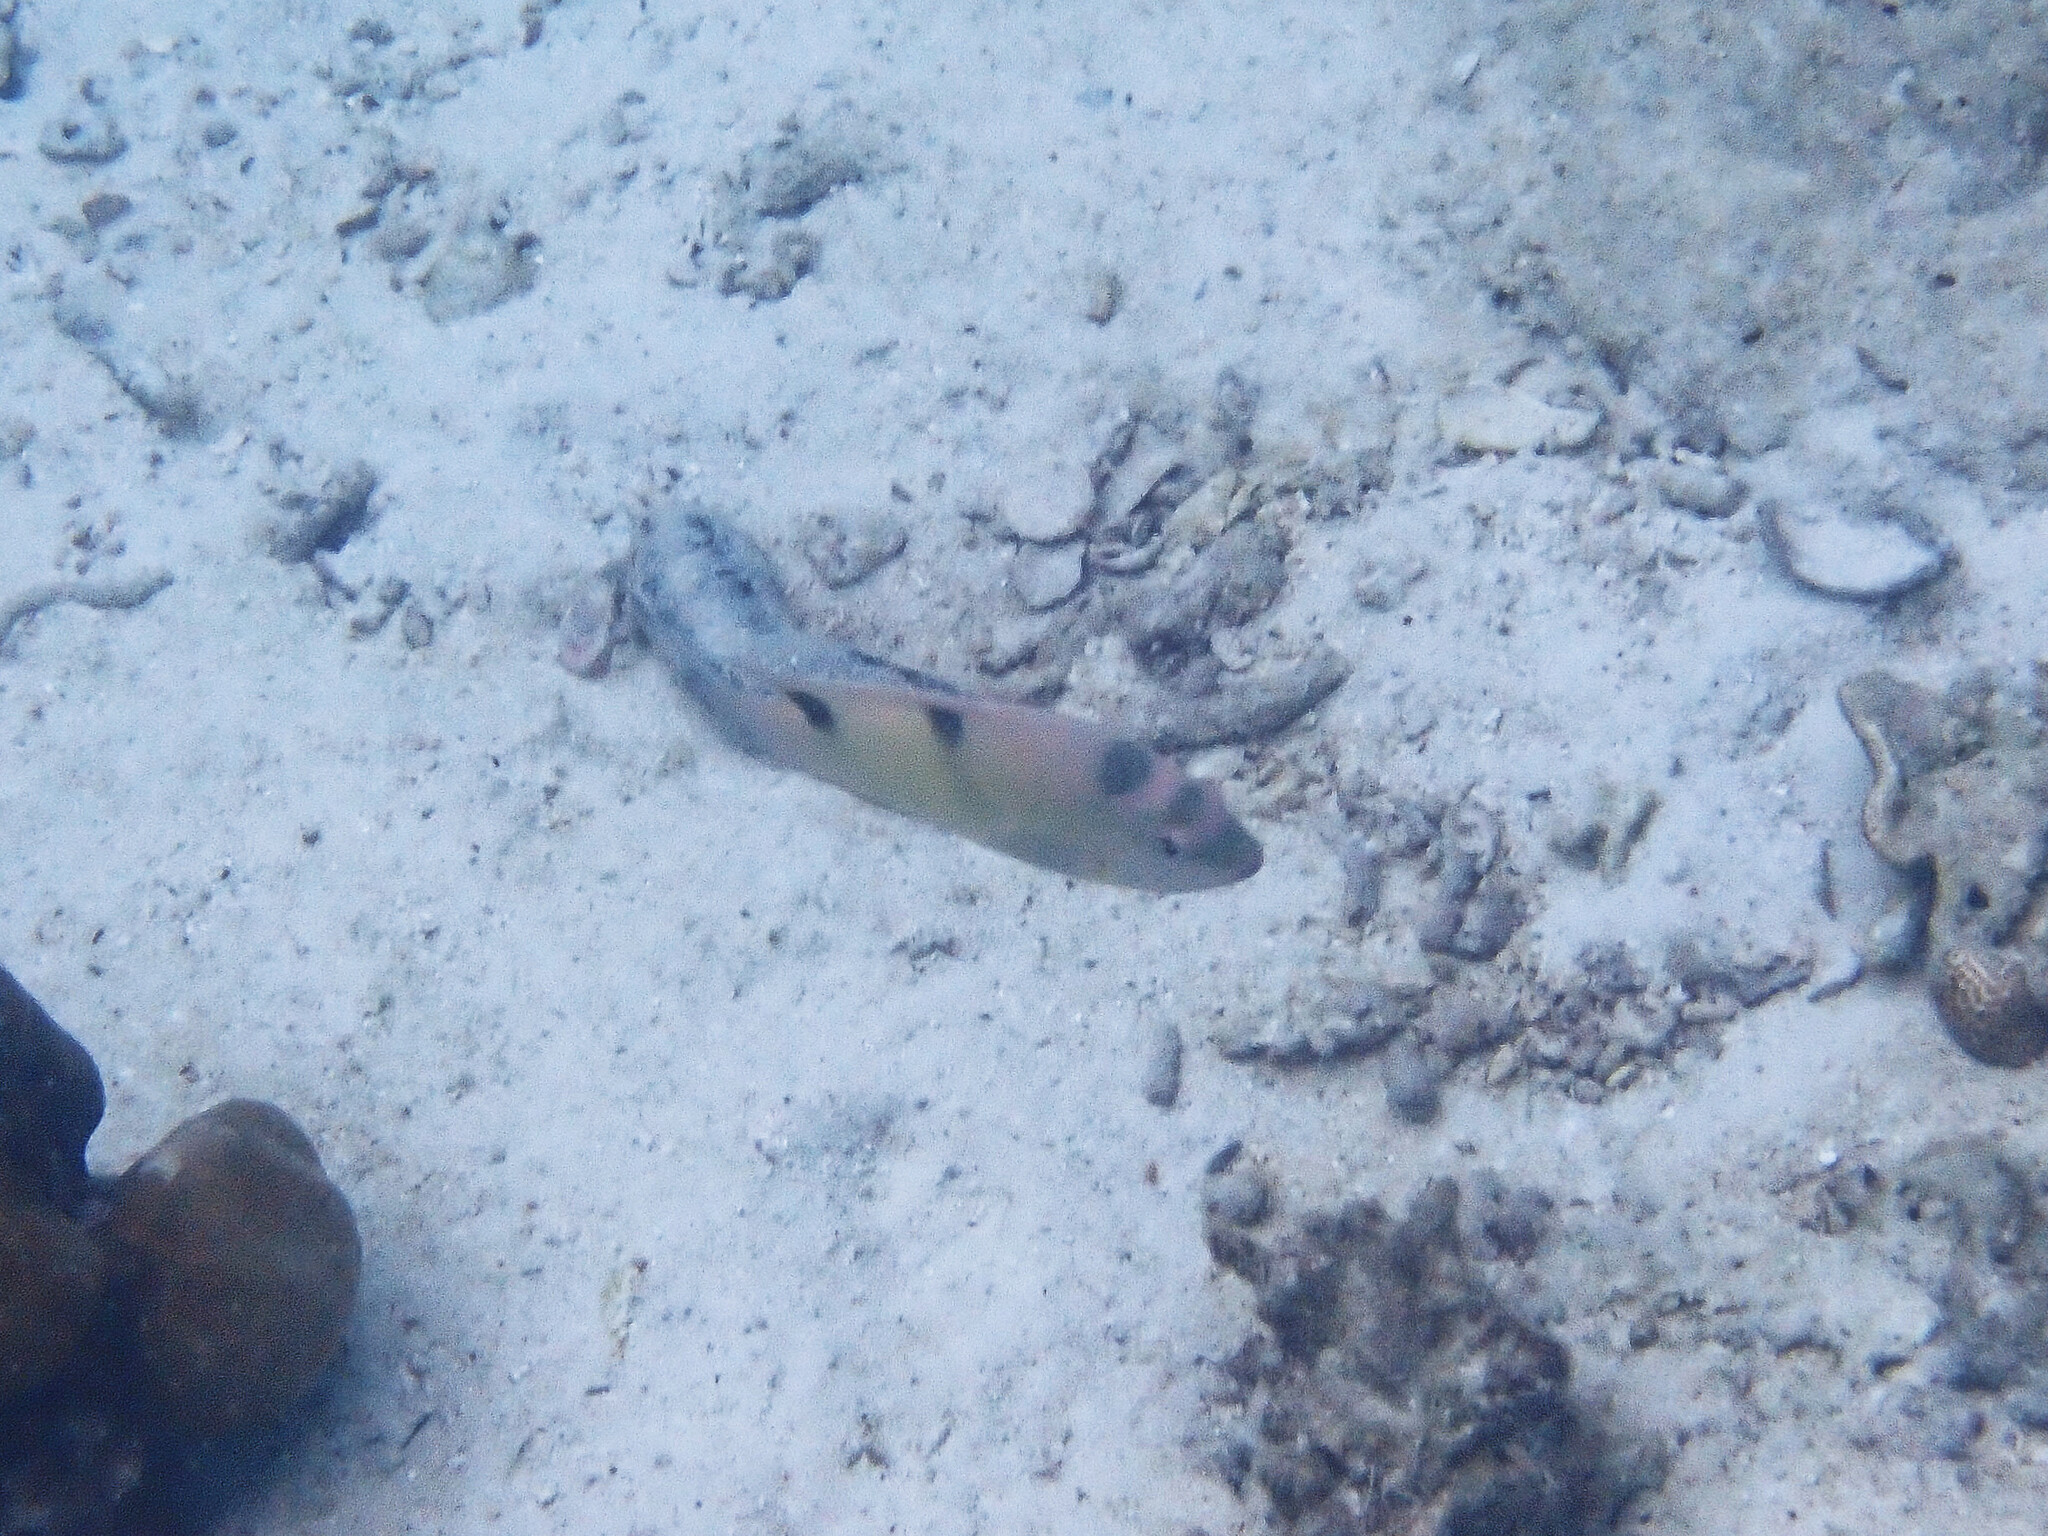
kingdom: Animalia
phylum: Chordata
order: Perciformes
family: Pomacentridae
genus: Dischistodus
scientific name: Dischistodus perspicillatus
